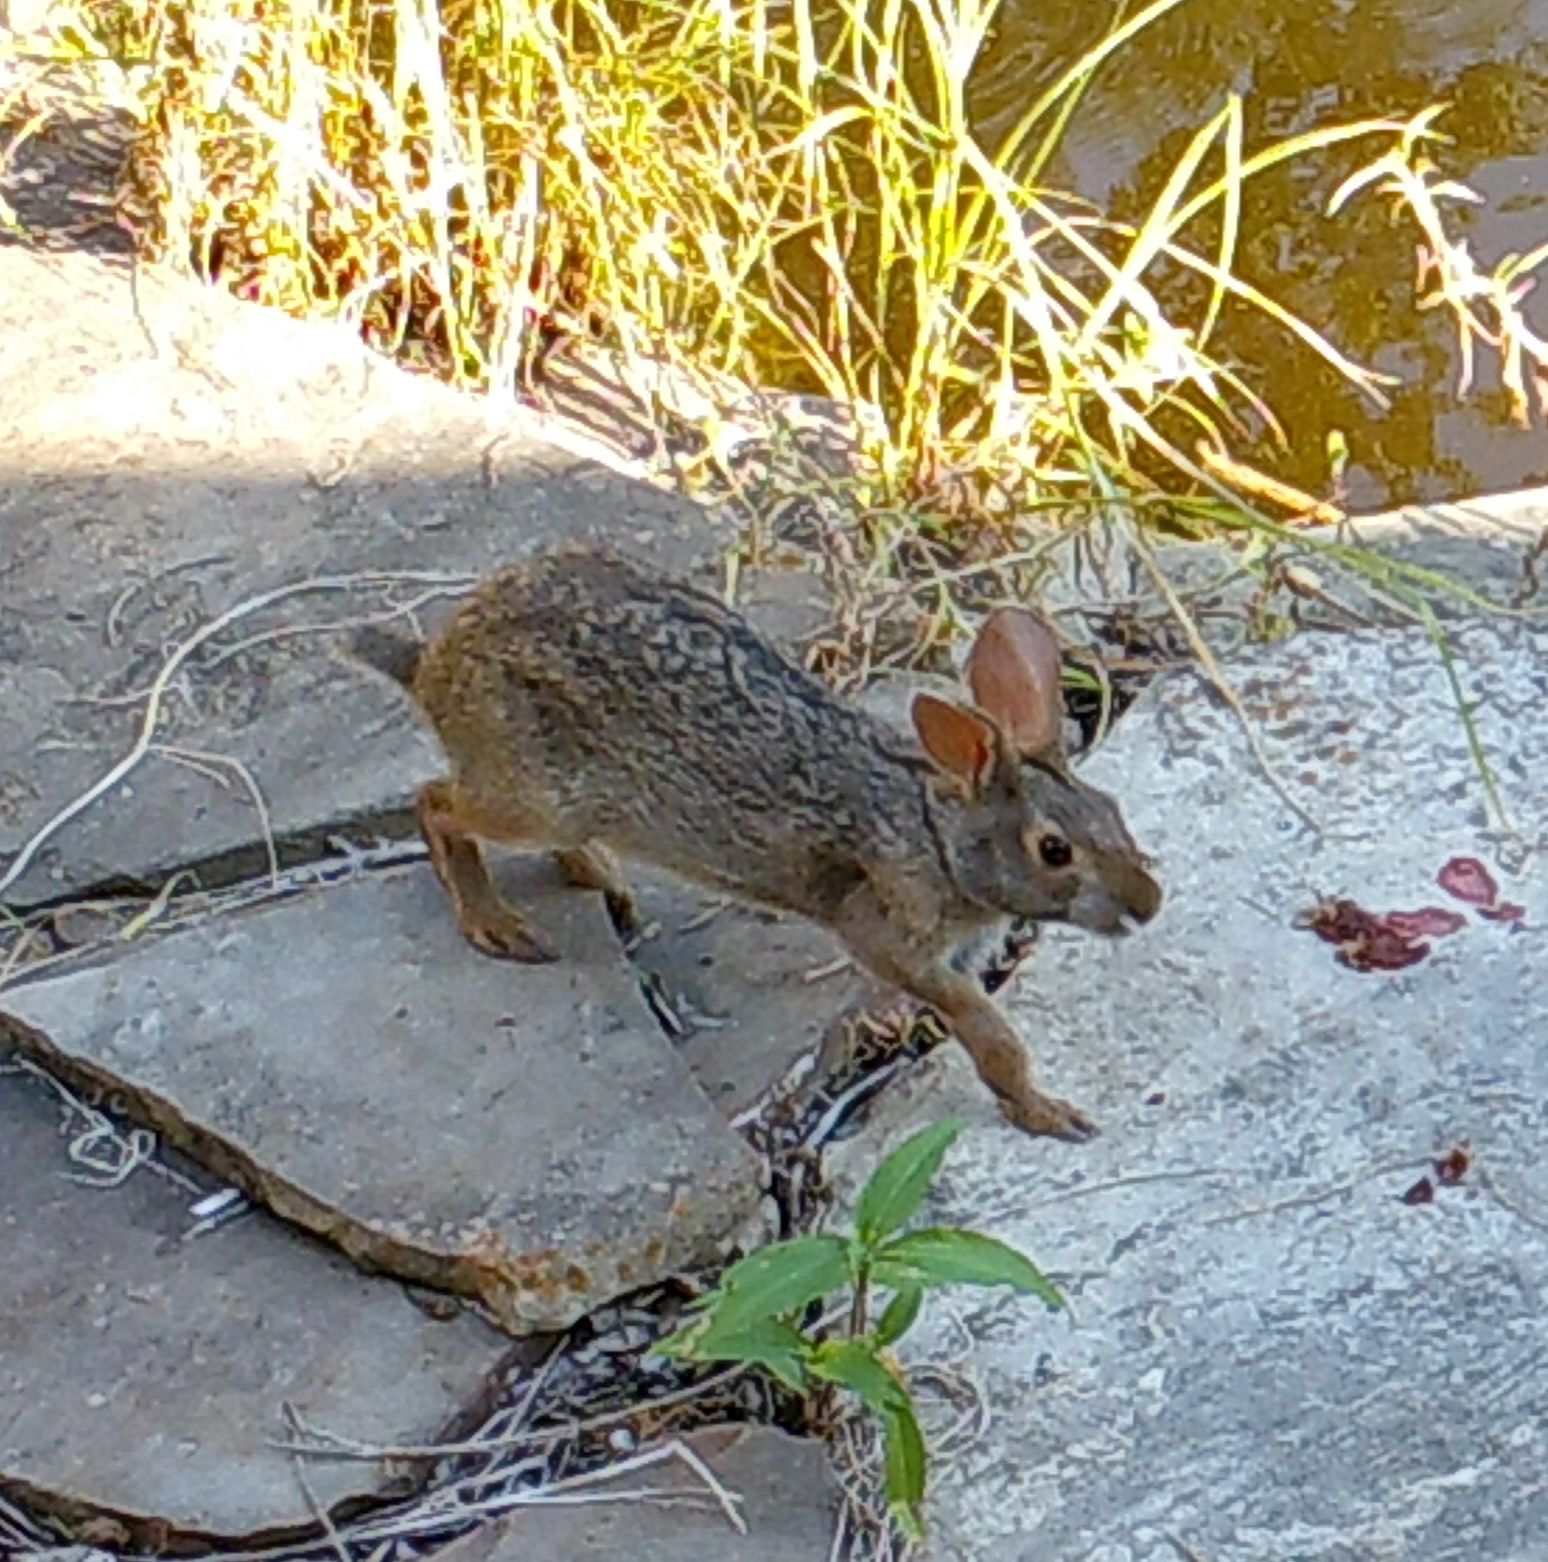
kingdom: Animalia
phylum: Chordata
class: Mammalia
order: Lagomorpha
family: Leporidae
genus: Sylvilagus
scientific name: Sylvilagus aquaticus
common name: Swamp rabbit
